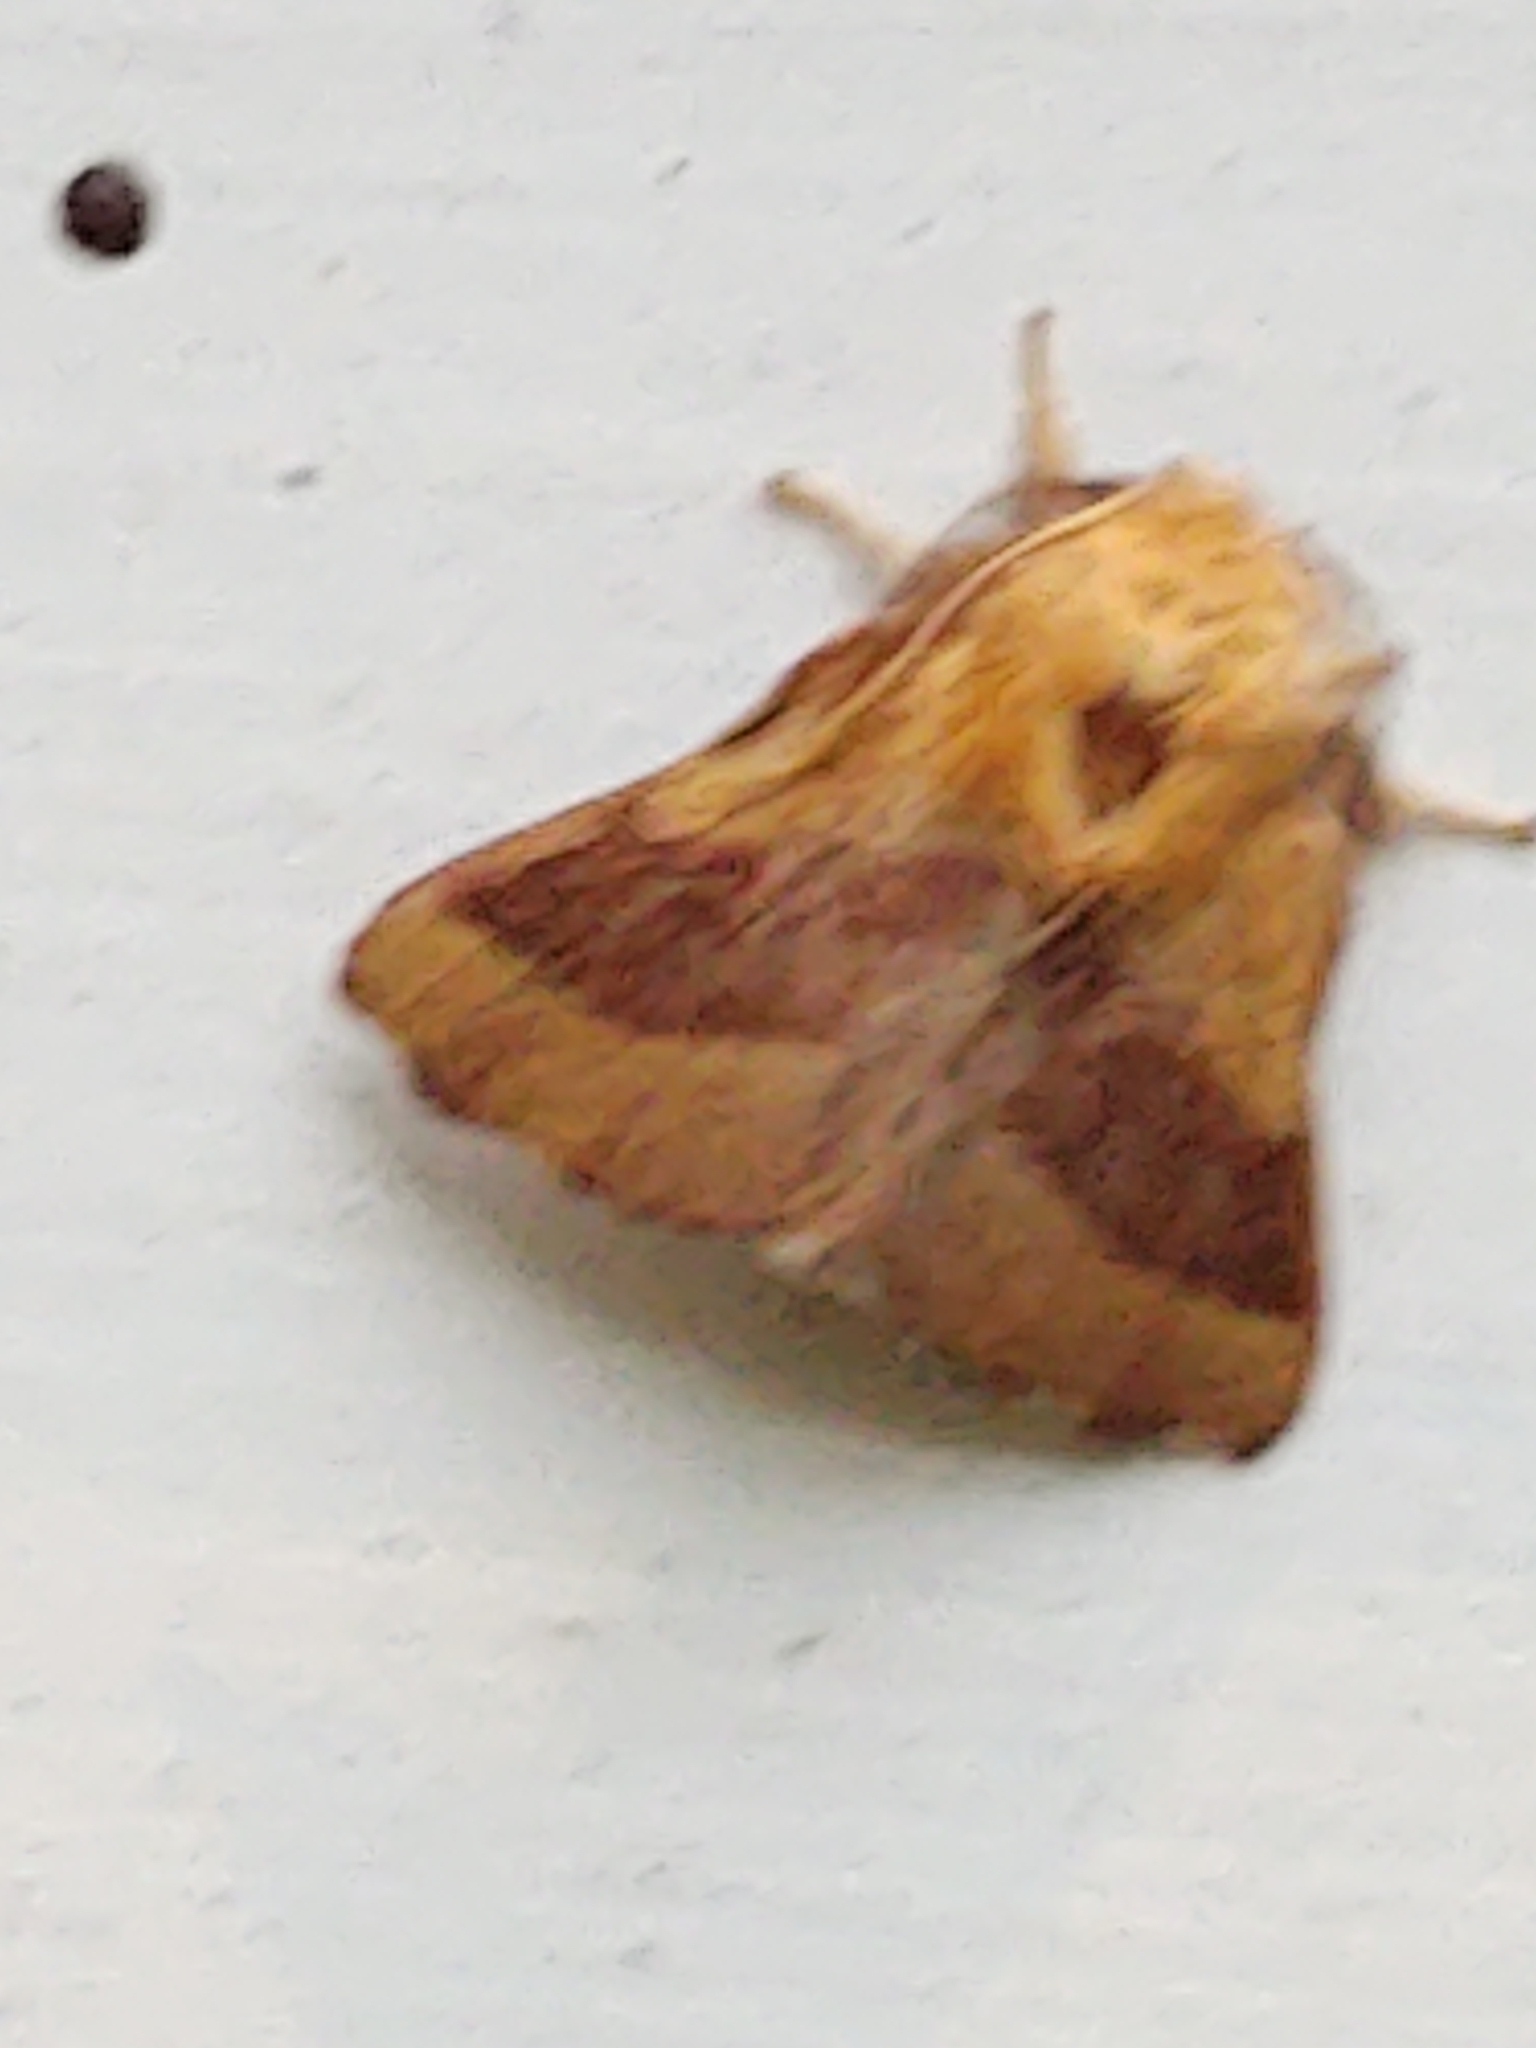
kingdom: Animalia
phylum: Arthropoda
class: Insecta
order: Lepidoptera
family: Lasiocampidae
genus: Malacosoma
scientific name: Malacosoma disstria
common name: Forest tent caterpillar
